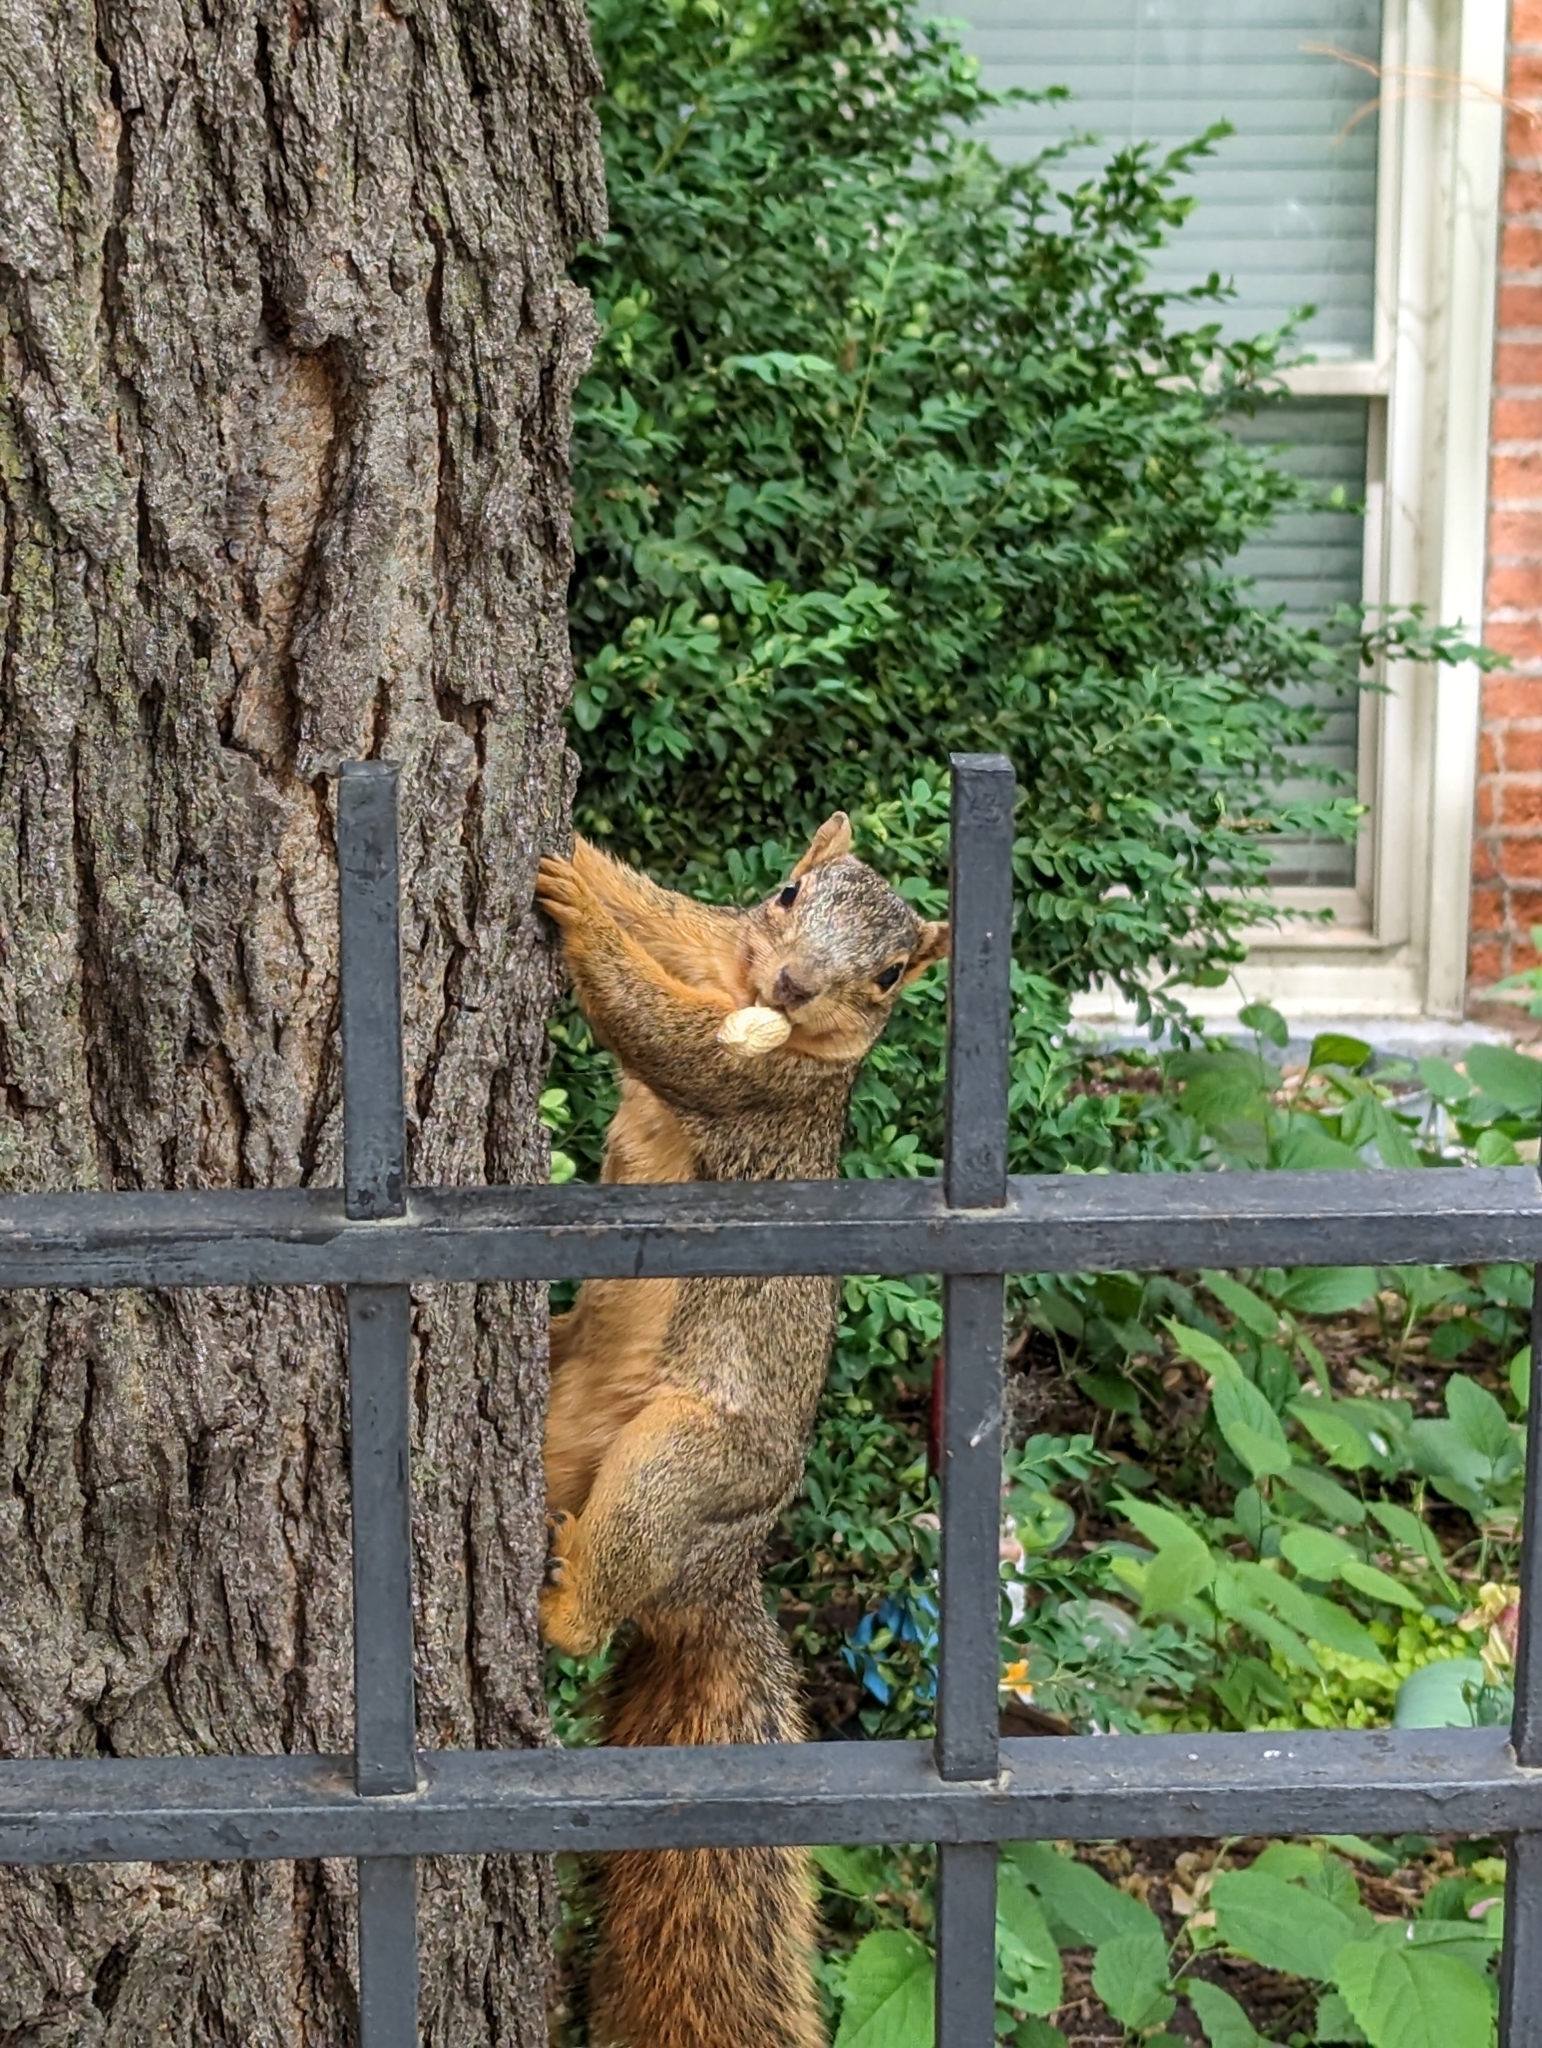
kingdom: Animalia
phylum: Chordata
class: Mammalia
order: Rodentia
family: Sciuridae
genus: Sciurus
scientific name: Sciurus niger
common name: Fox squirrel
